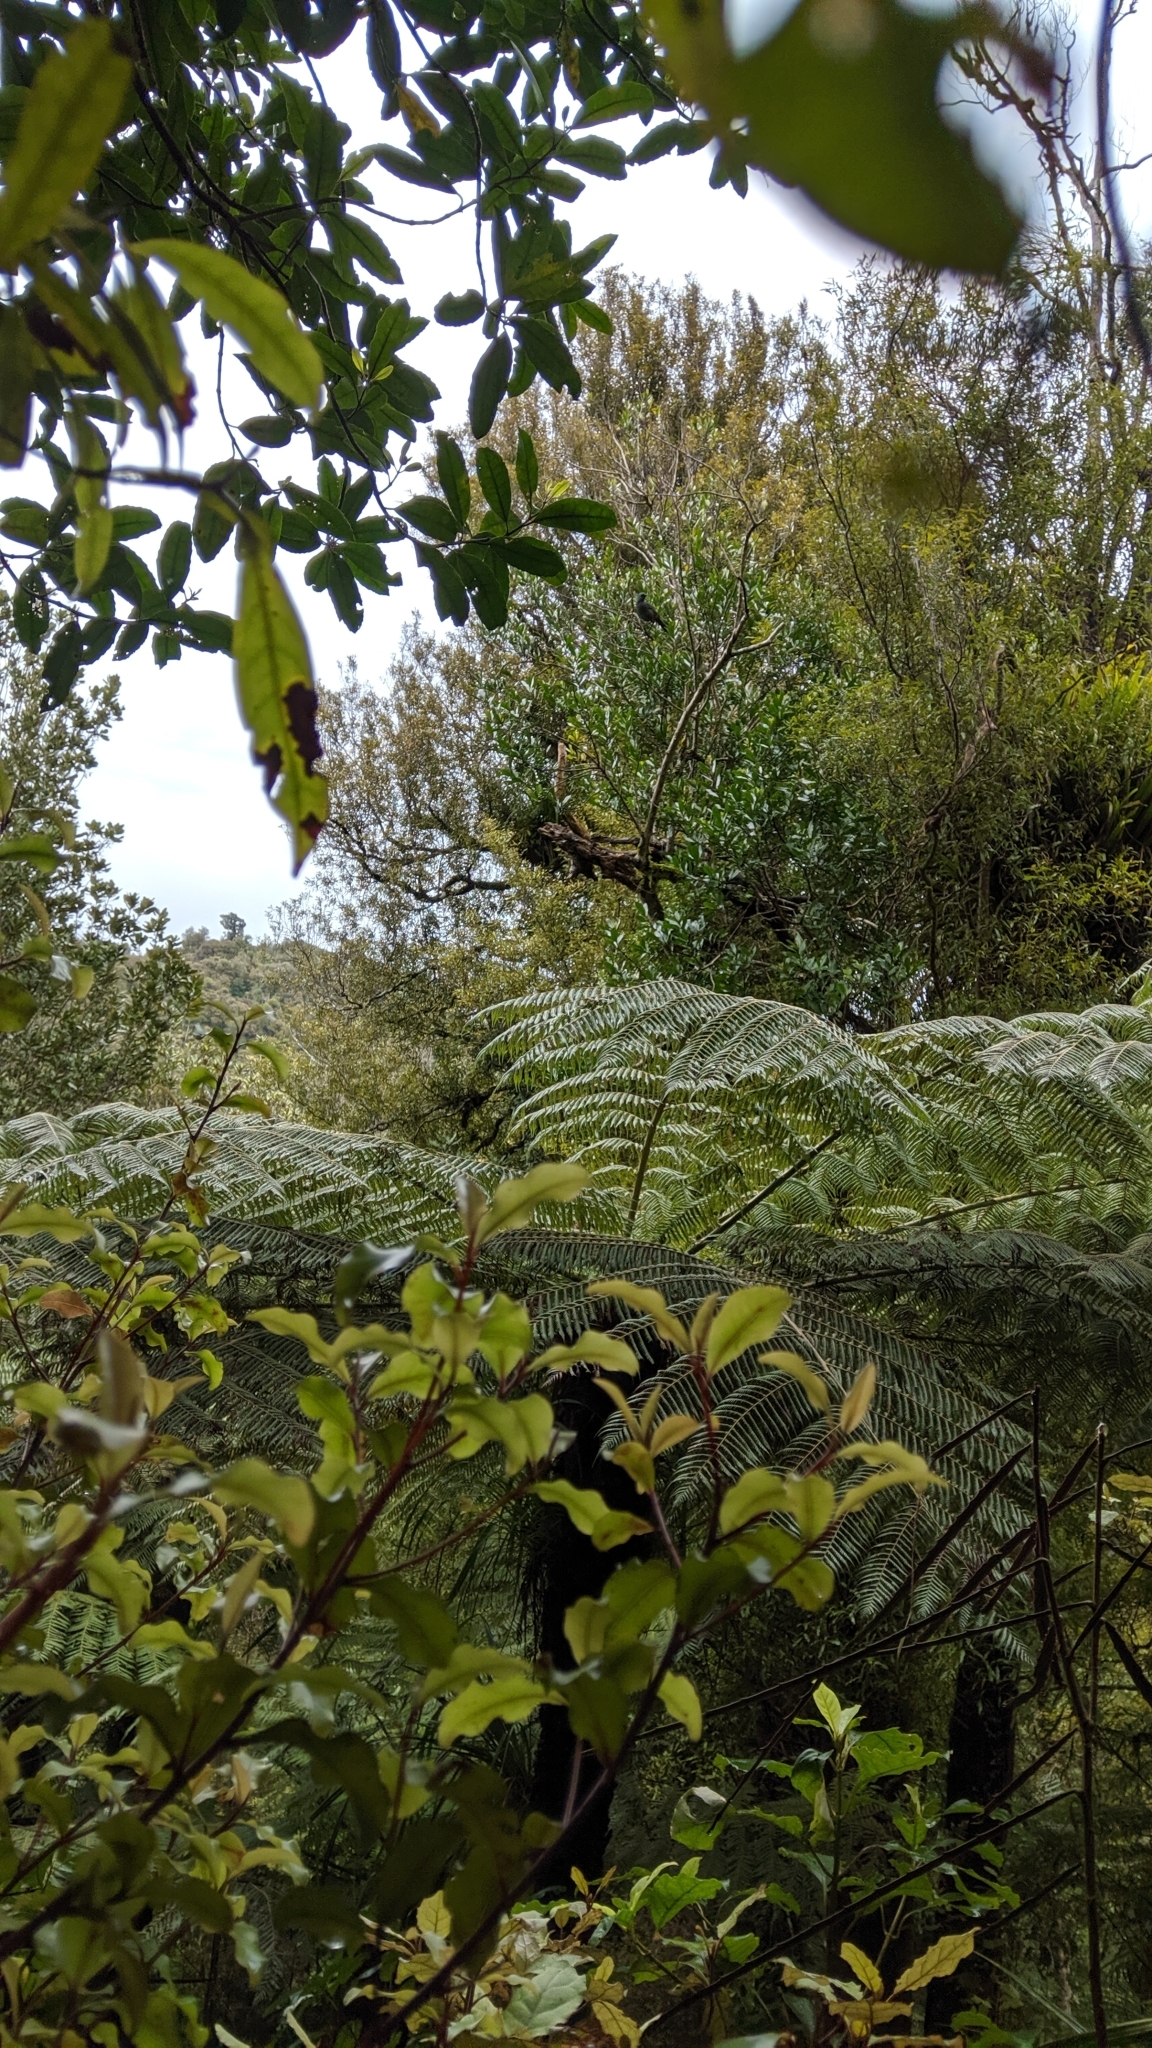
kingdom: Animalia
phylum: Chordata
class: Aves
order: Passeriformes
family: Callaeatidae
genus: Callaeas
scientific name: Callaeas cinereus
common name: South island kokako
